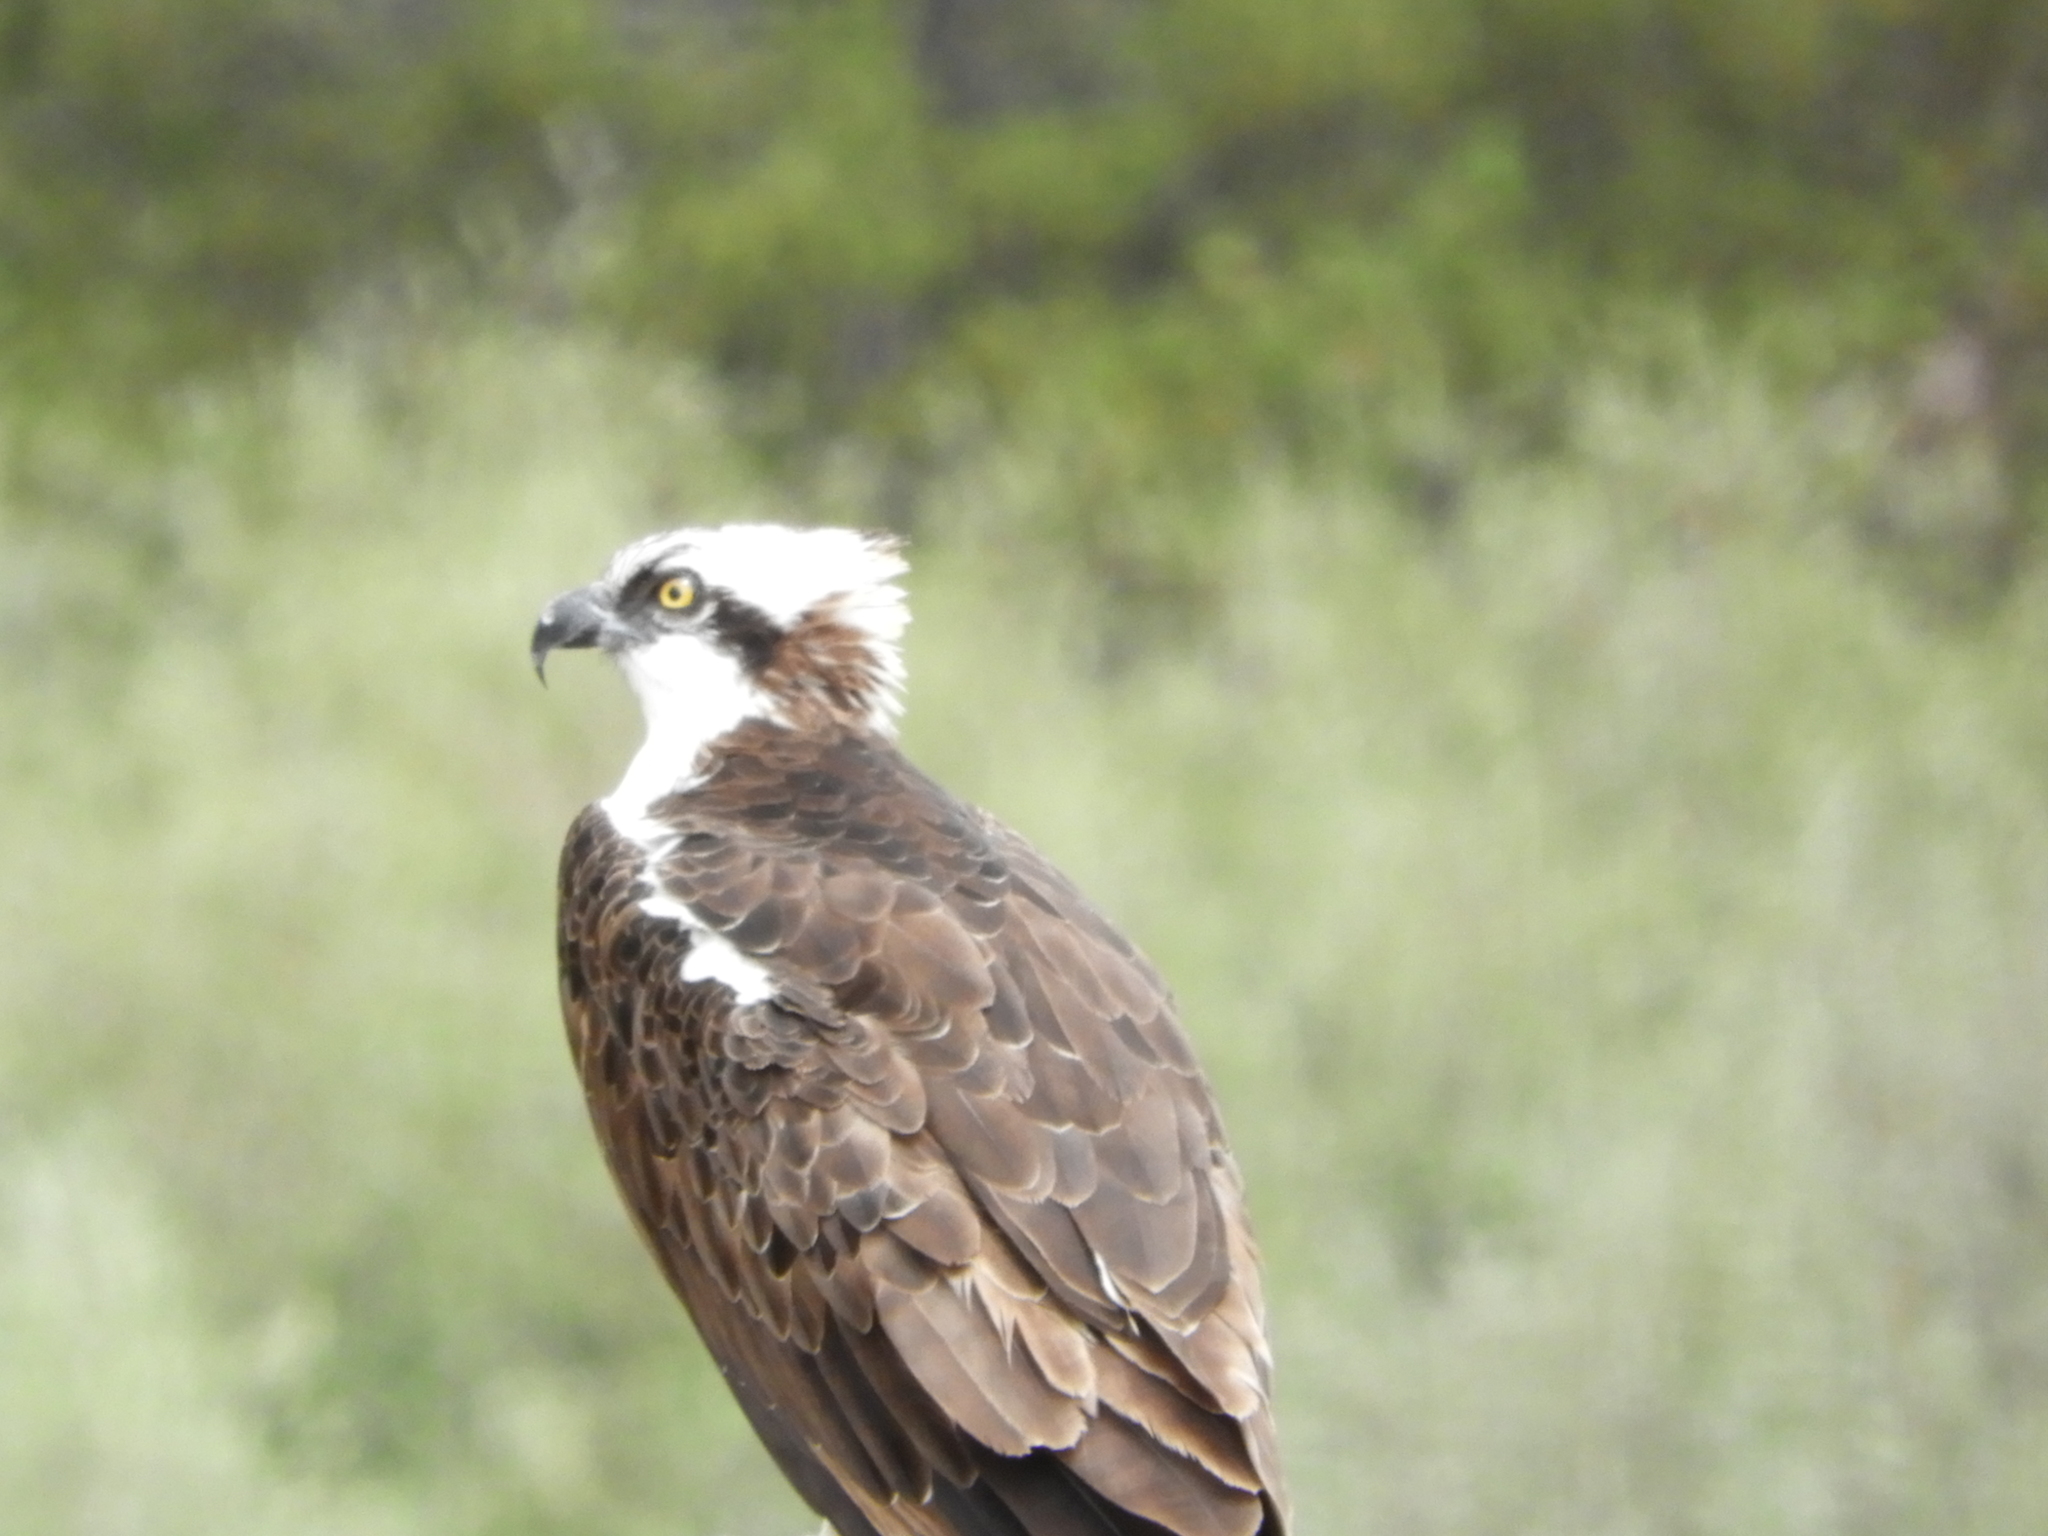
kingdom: Animalia
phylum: Chordata
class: Aves
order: Accipitriformes
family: Pandionidae
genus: Pandion
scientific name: Pandion haliaetus
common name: Osprey
